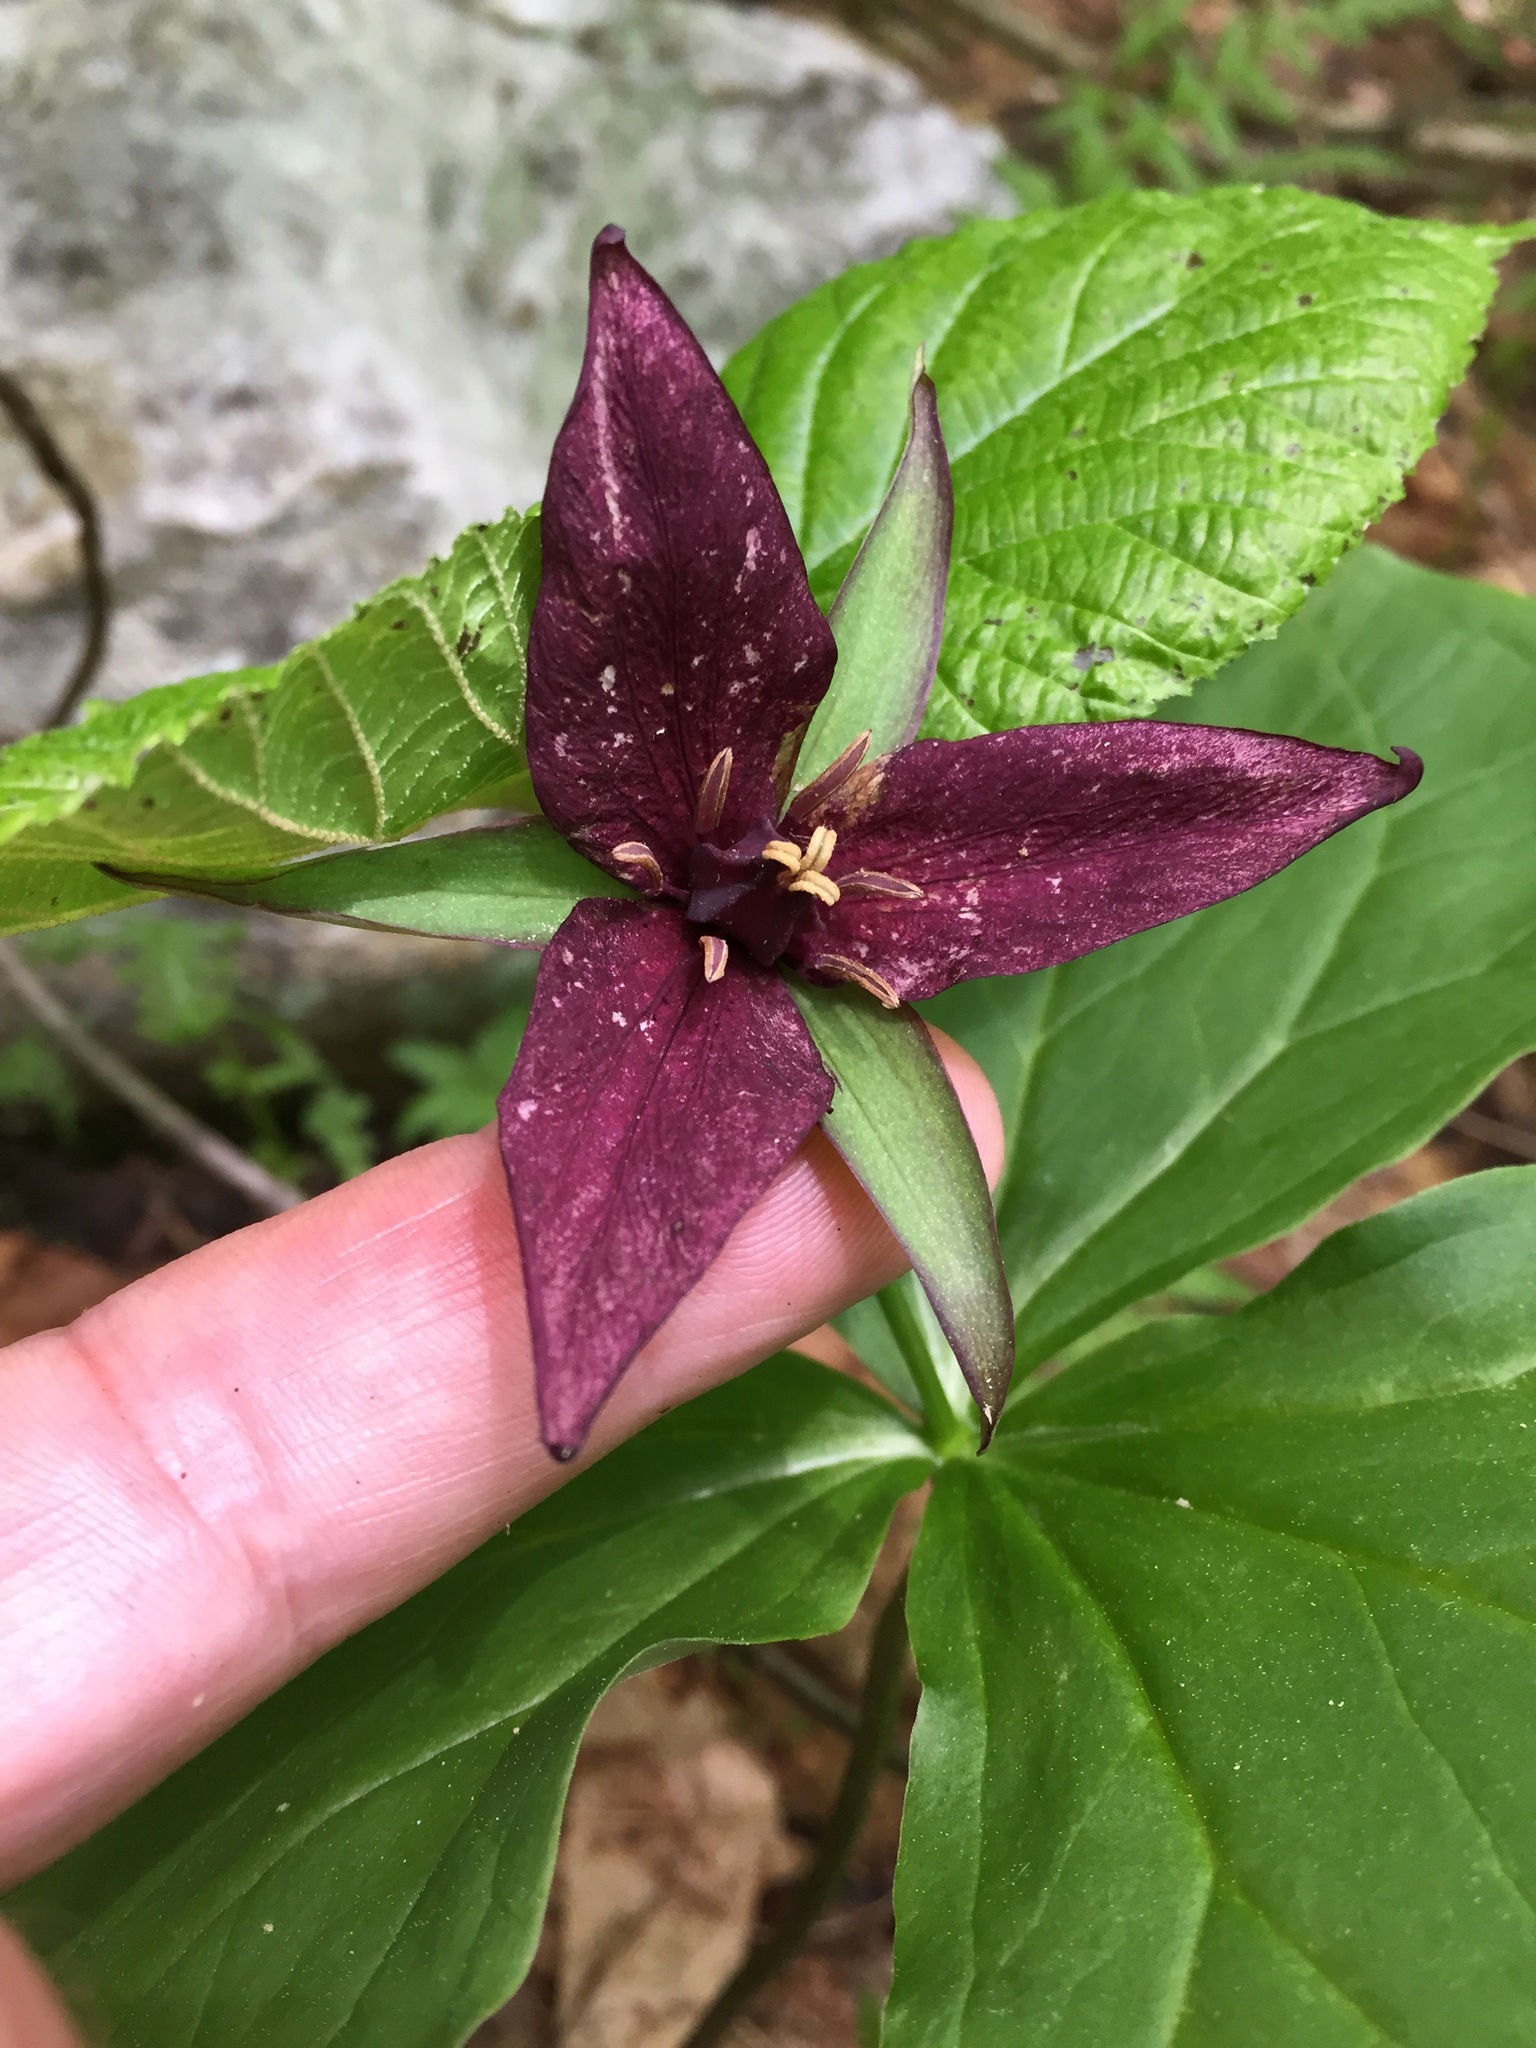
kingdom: Plantae
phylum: Tracheophyta
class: Liliopsida
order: Liliales
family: Melanthiaceae
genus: Trillium
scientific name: Trillium erectum
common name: Purple trillium
